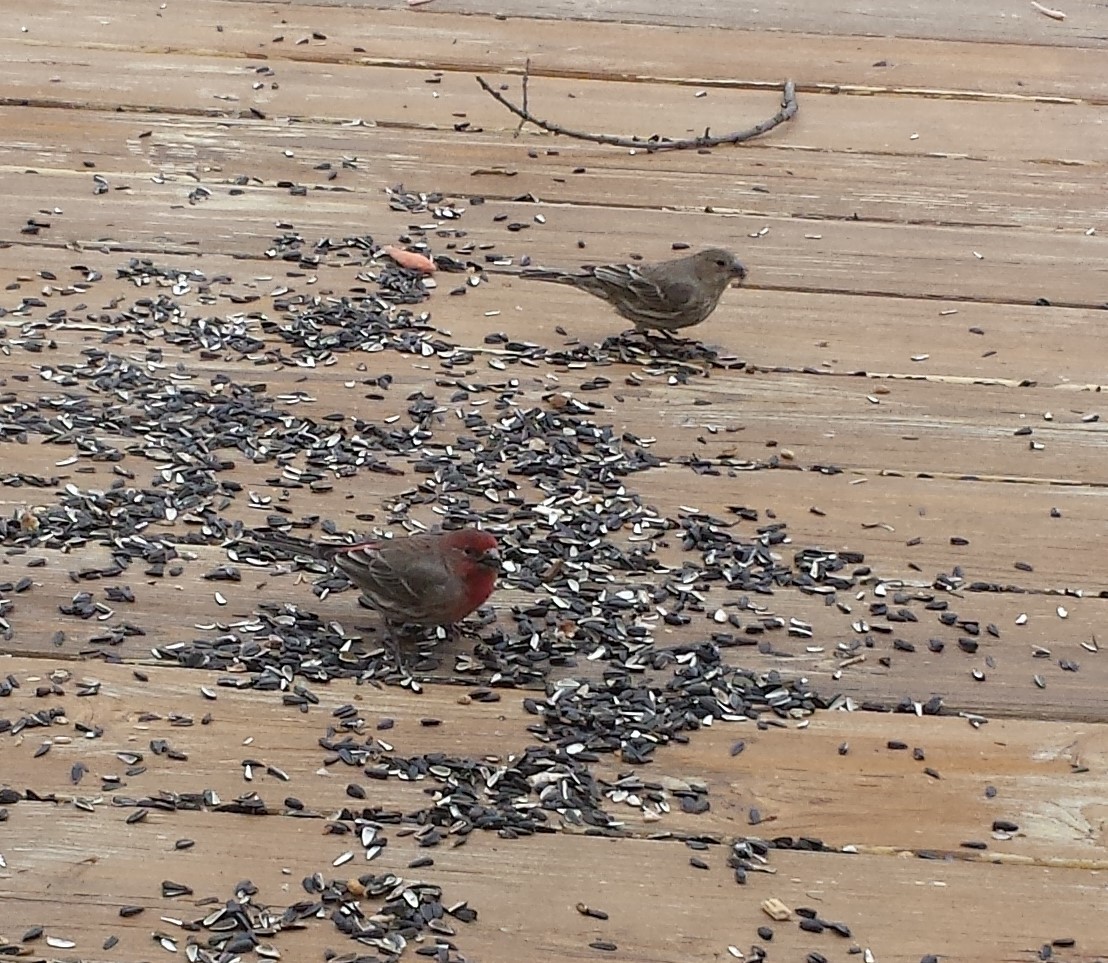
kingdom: Animalia
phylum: Chordata
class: Aves
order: Passeriformes
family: Fringillidae
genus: Haemorhous
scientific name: Haemorhous mexicanus
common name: House finch
